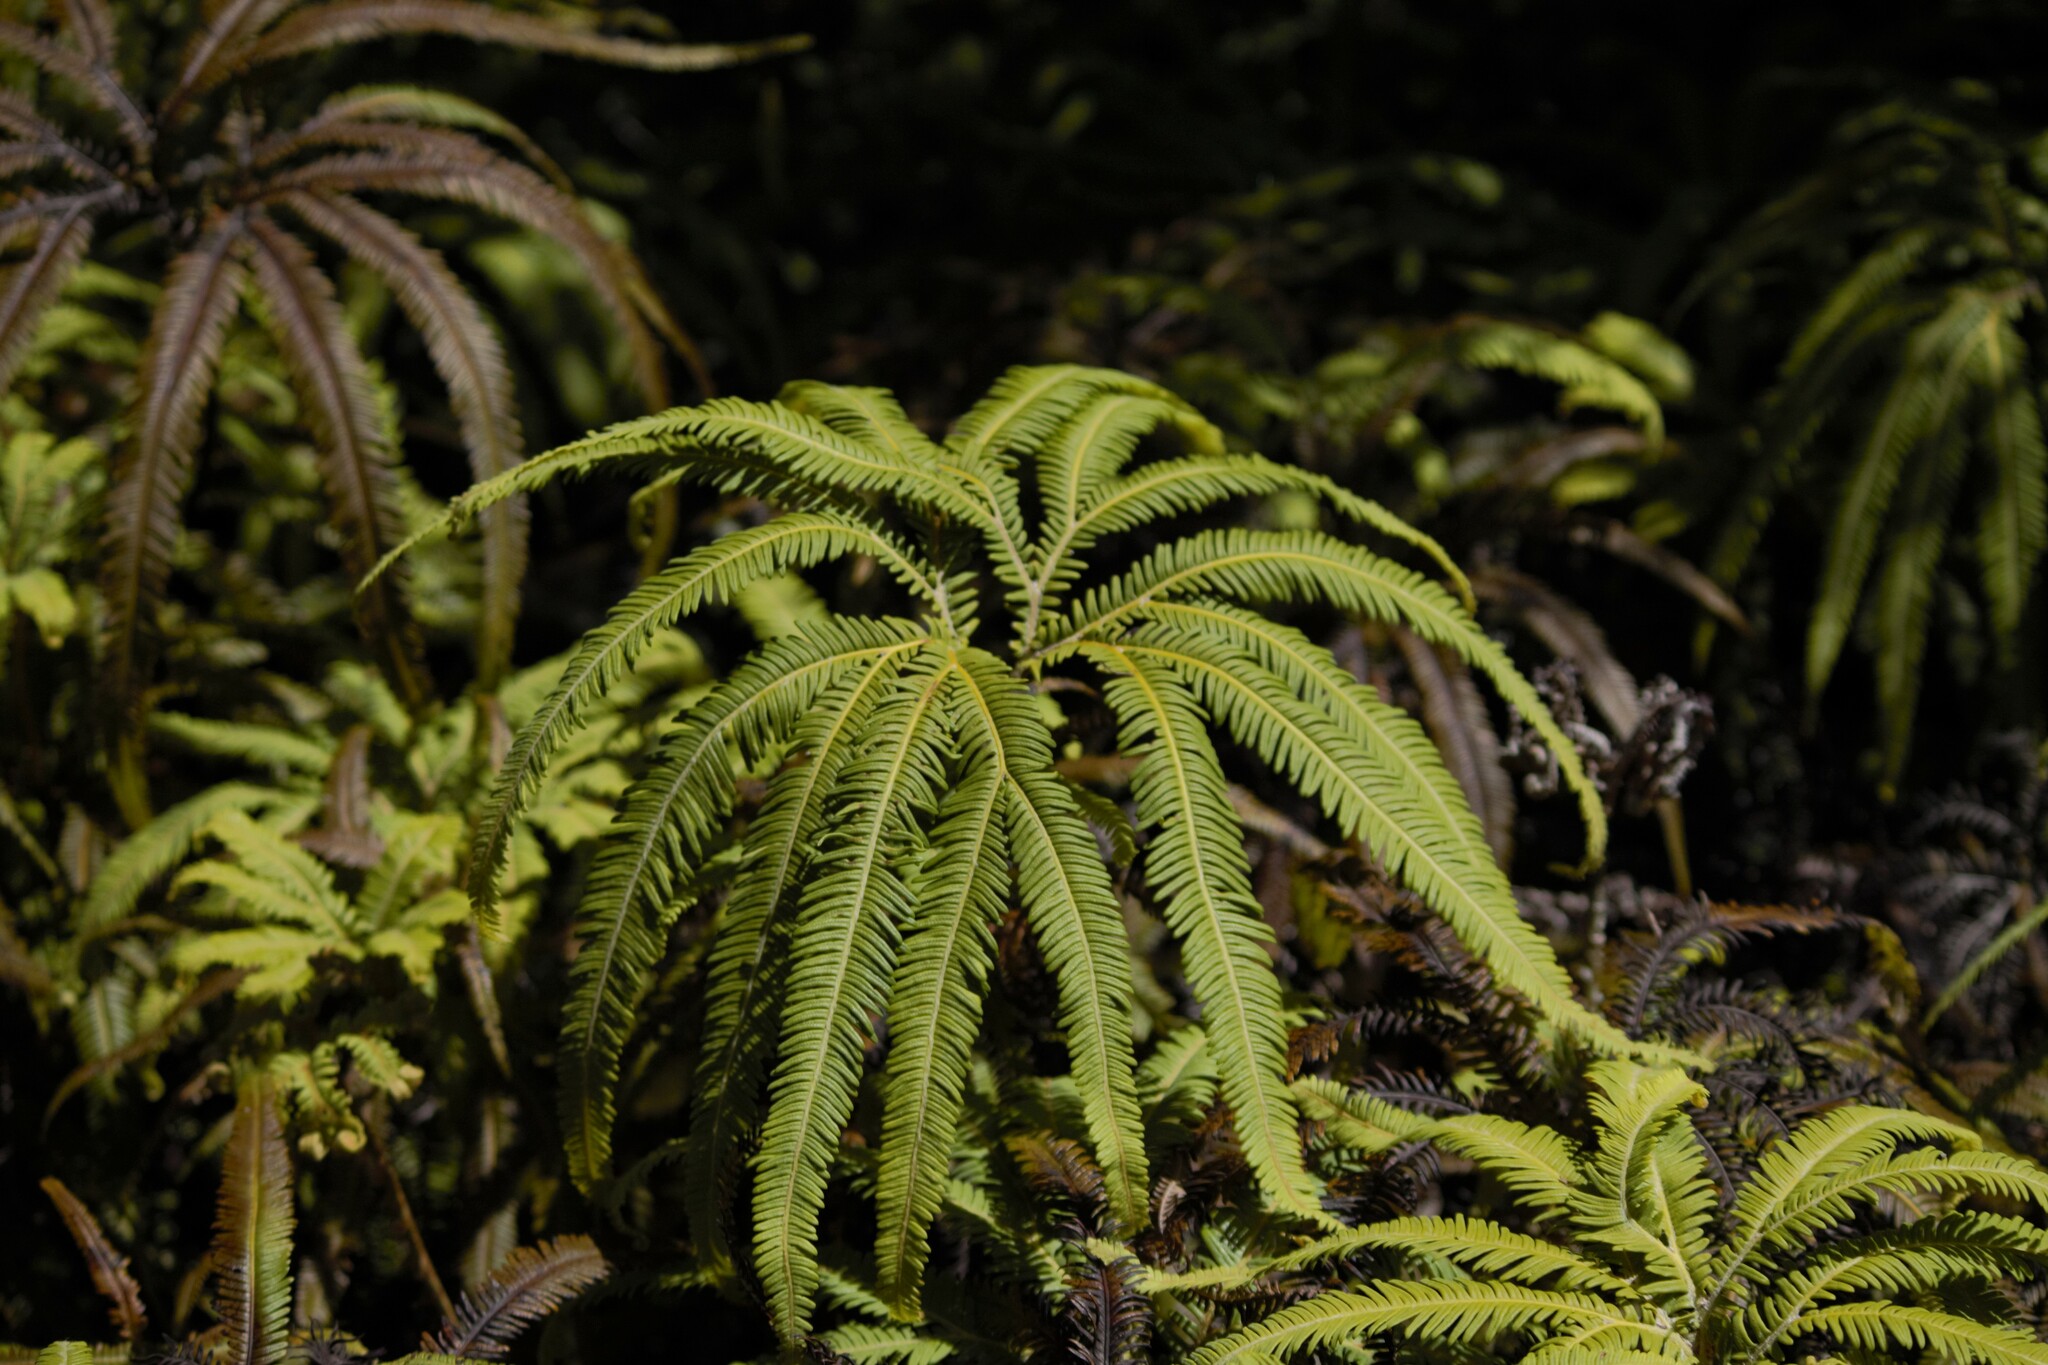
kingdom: Plantae
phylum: Tracheophyta
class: Polypodiopsida
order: Gleicheniales
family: Gleicheniaceae
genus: Sticherus
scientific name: Sticherus cunninghamii
